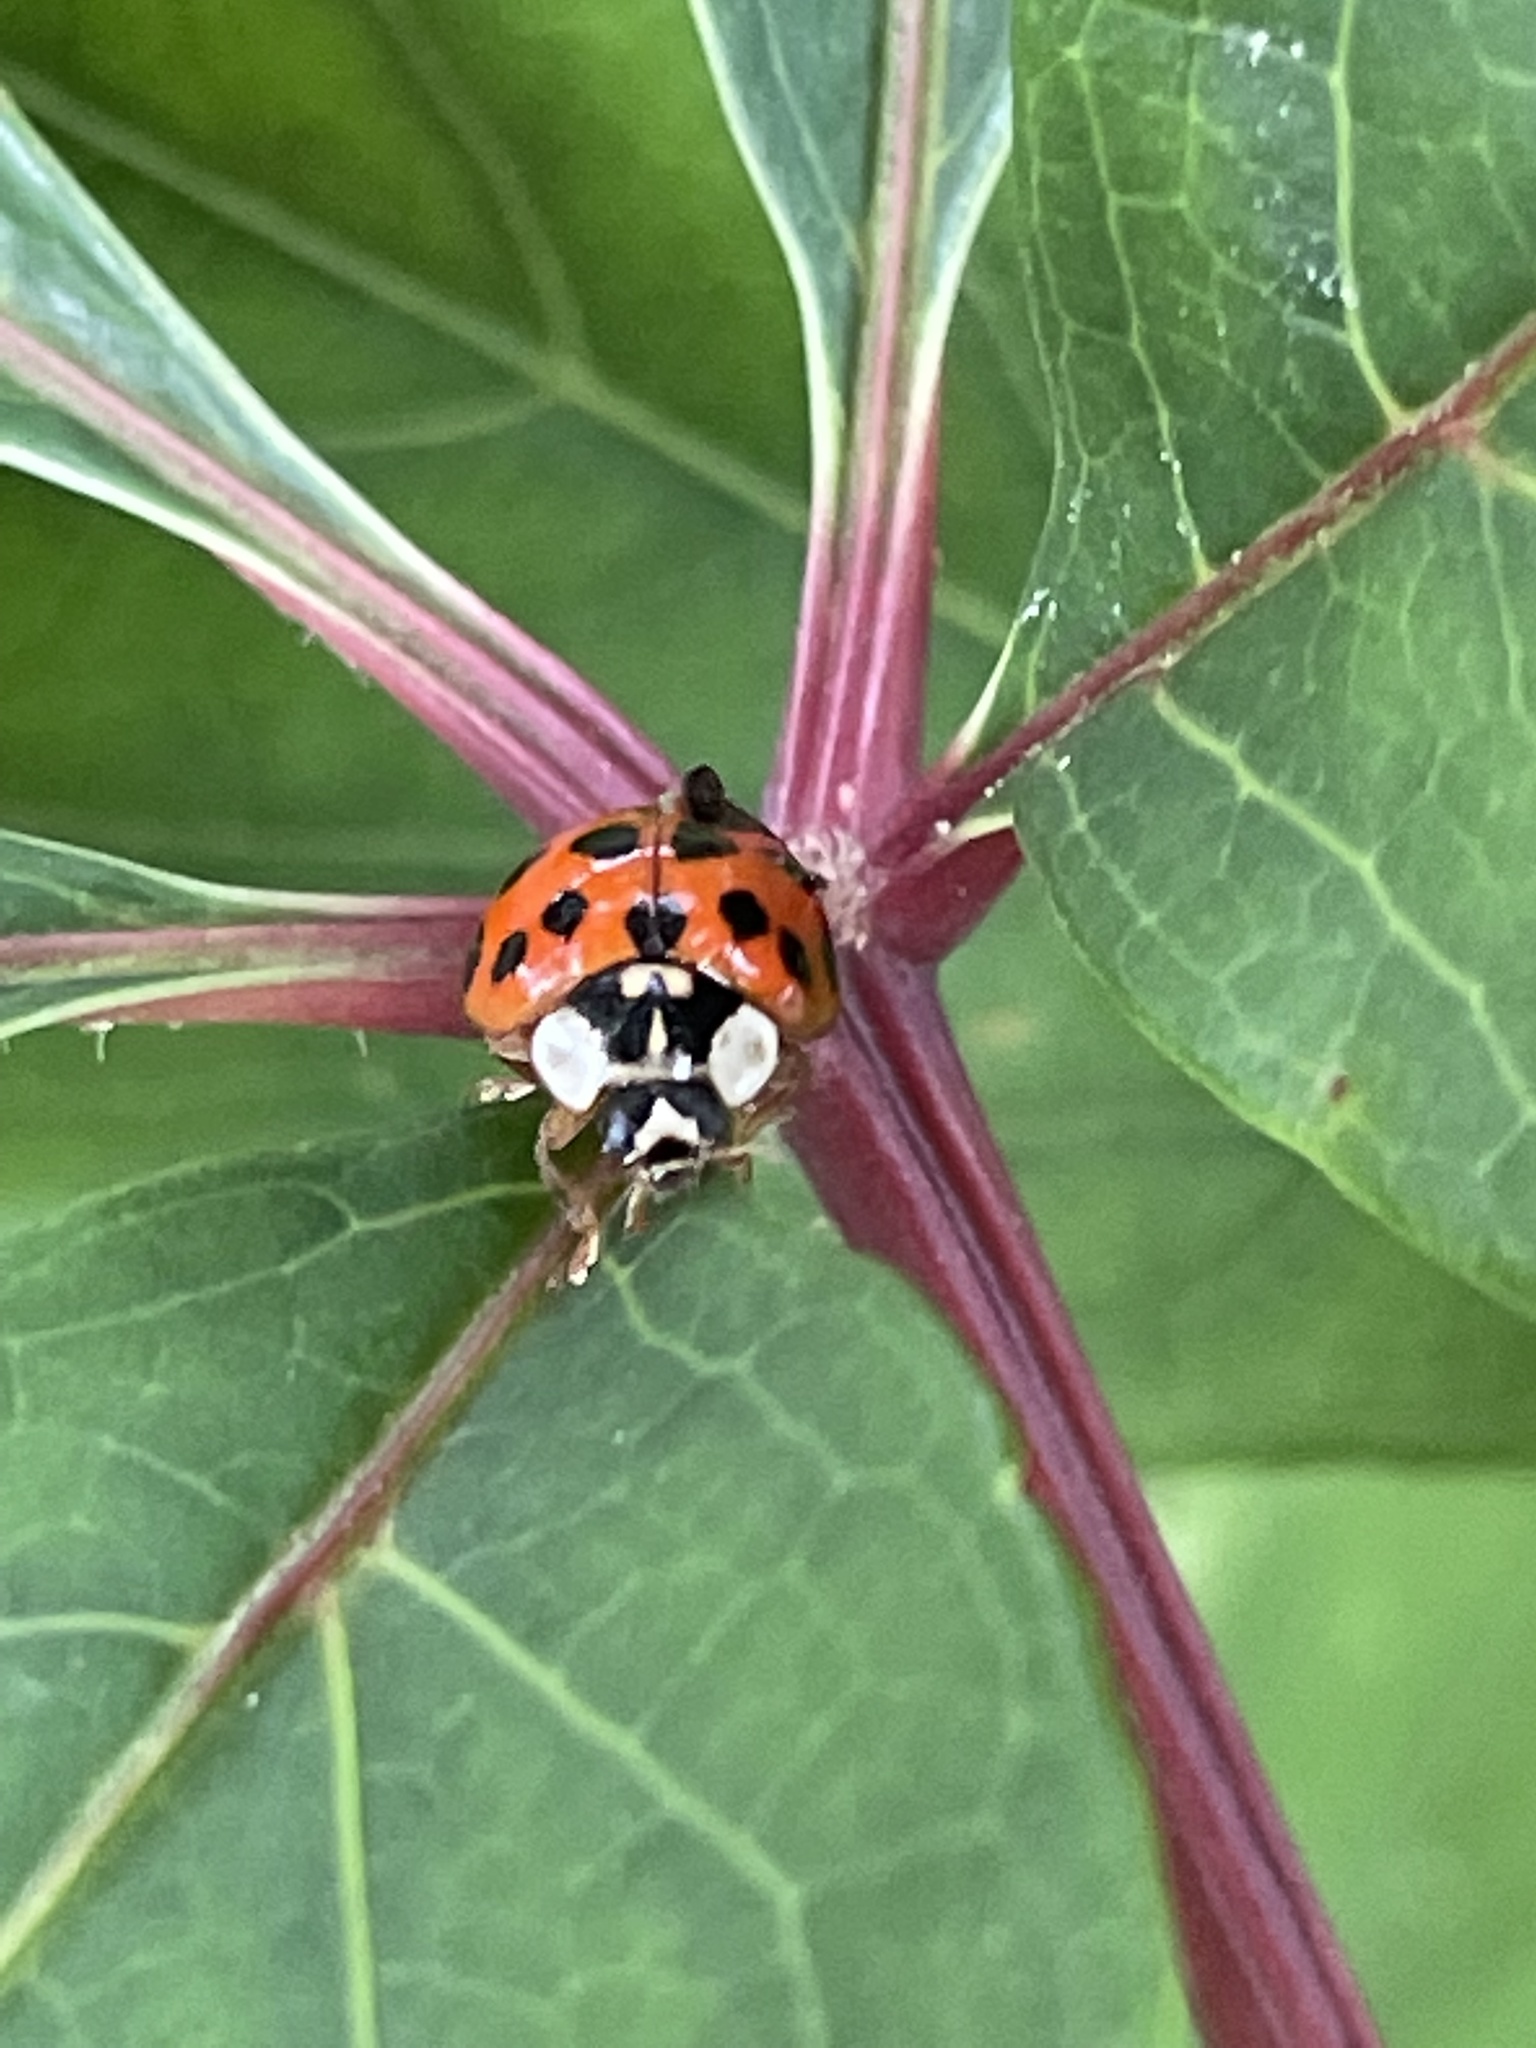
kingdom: Animalia
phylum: Arthropoda
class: Insecta
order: Coleoptera
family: Coccinellidae
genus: Harmonia
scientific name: Harmonia axyridis
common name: Harlequin ladybird
